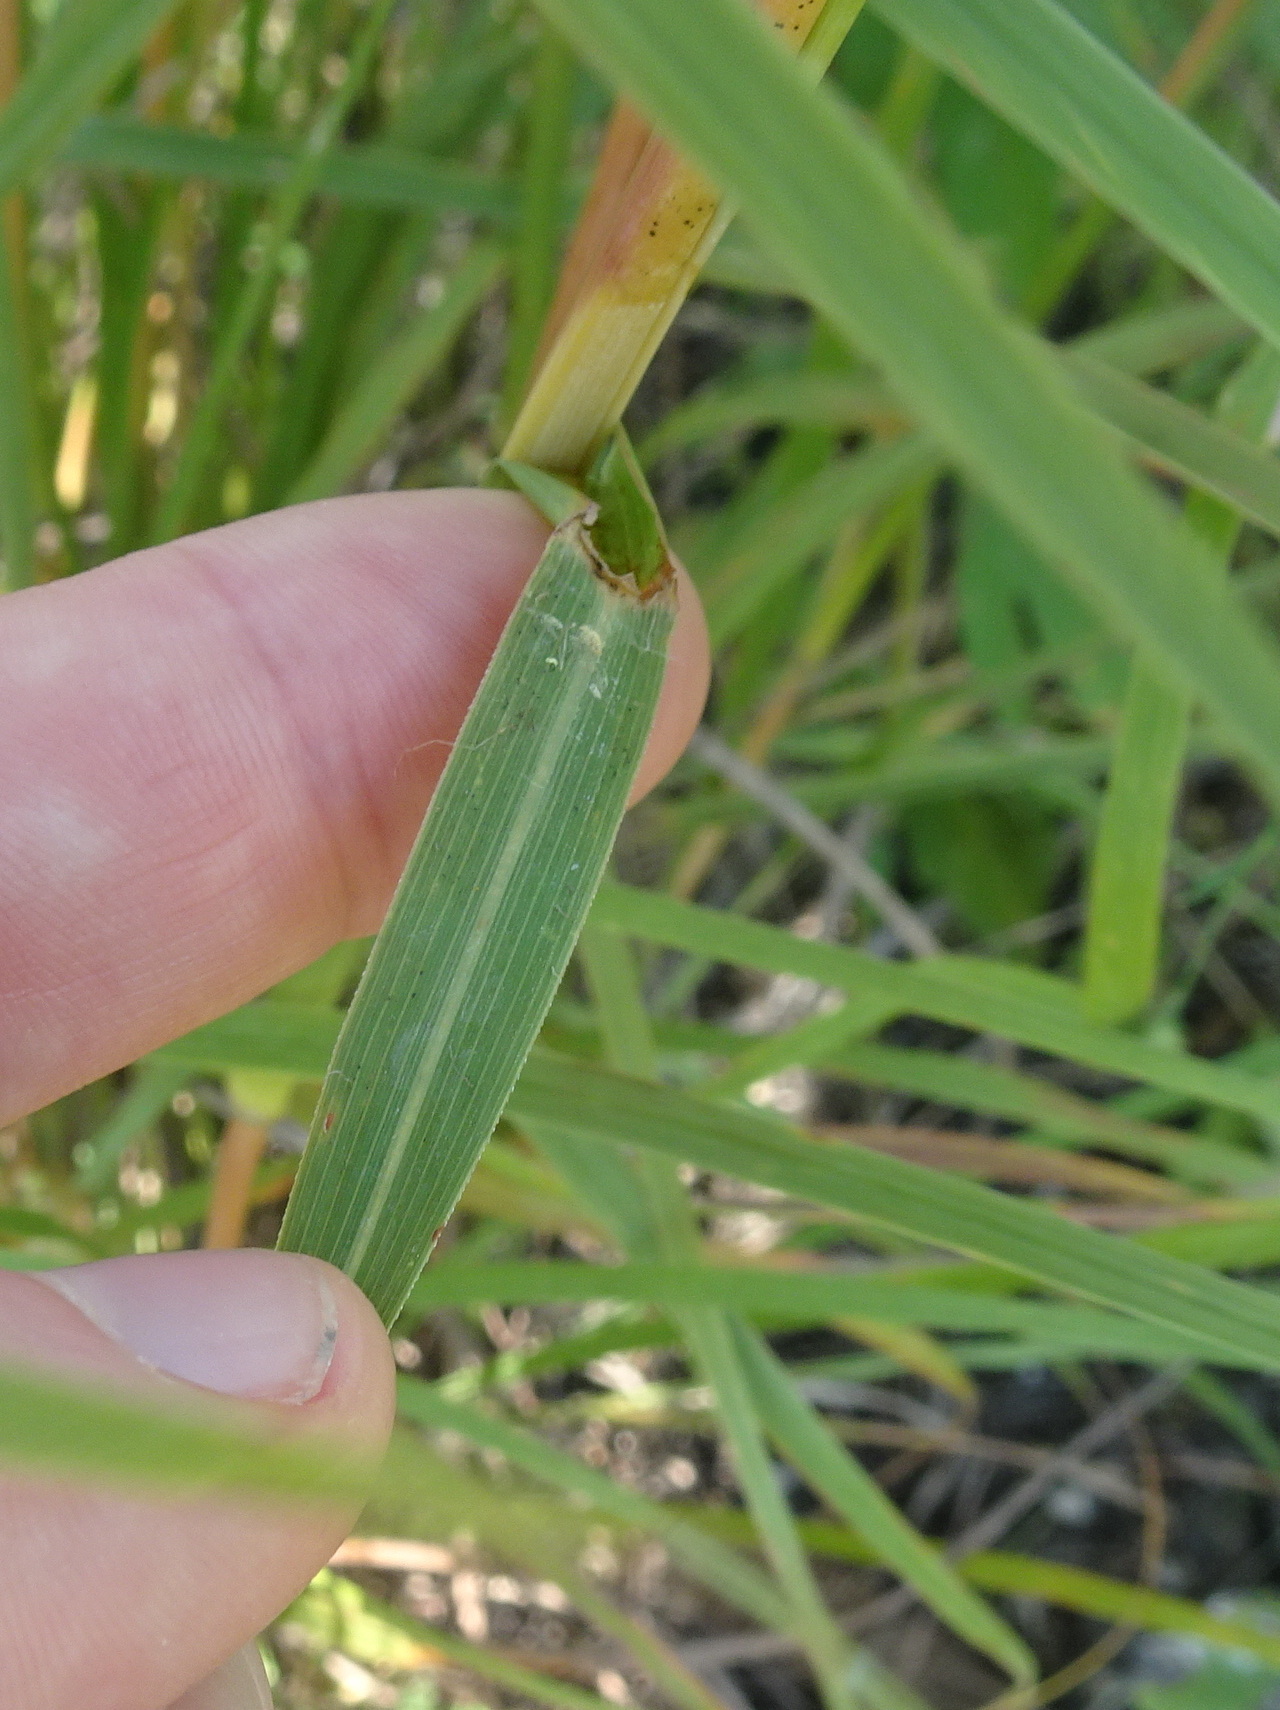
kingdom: Plantae
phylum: Tracheophyta
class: Liliopsida
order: Poales
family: Poaceae
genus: Andropogon
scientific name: Andropogon gerardi
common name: Big bluestem
